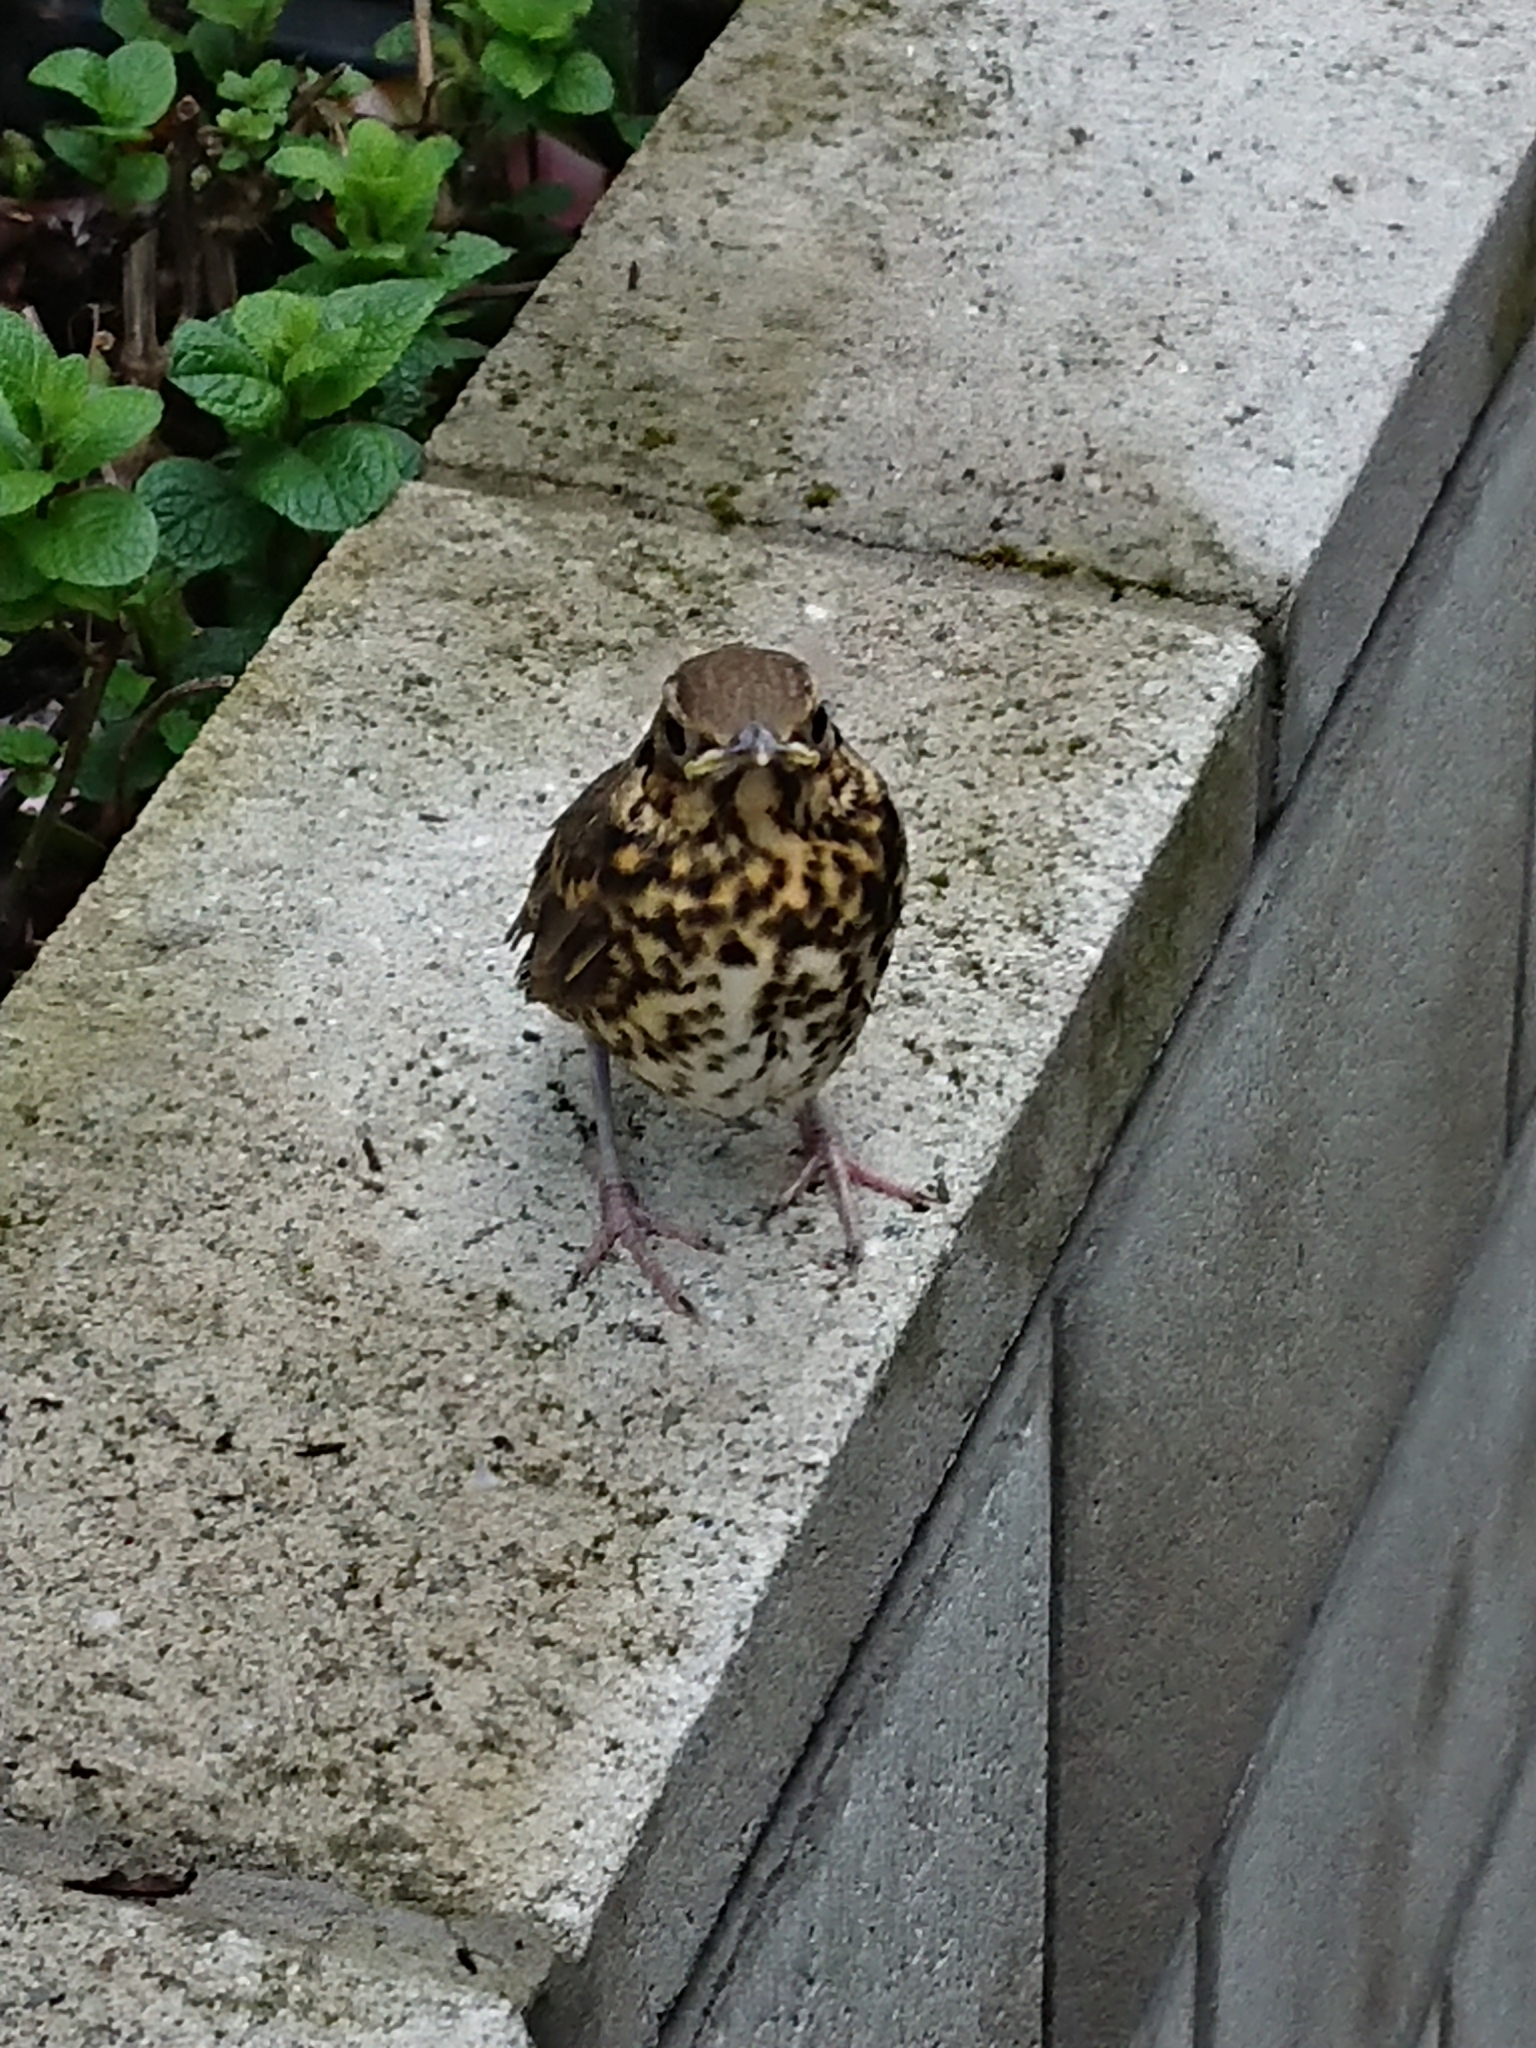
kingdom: Animalia
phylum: Chordata
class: Aves
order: Passeriformes
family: Turdidae
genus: Turdus
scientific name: Turdus philomelos
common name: Song thrush
